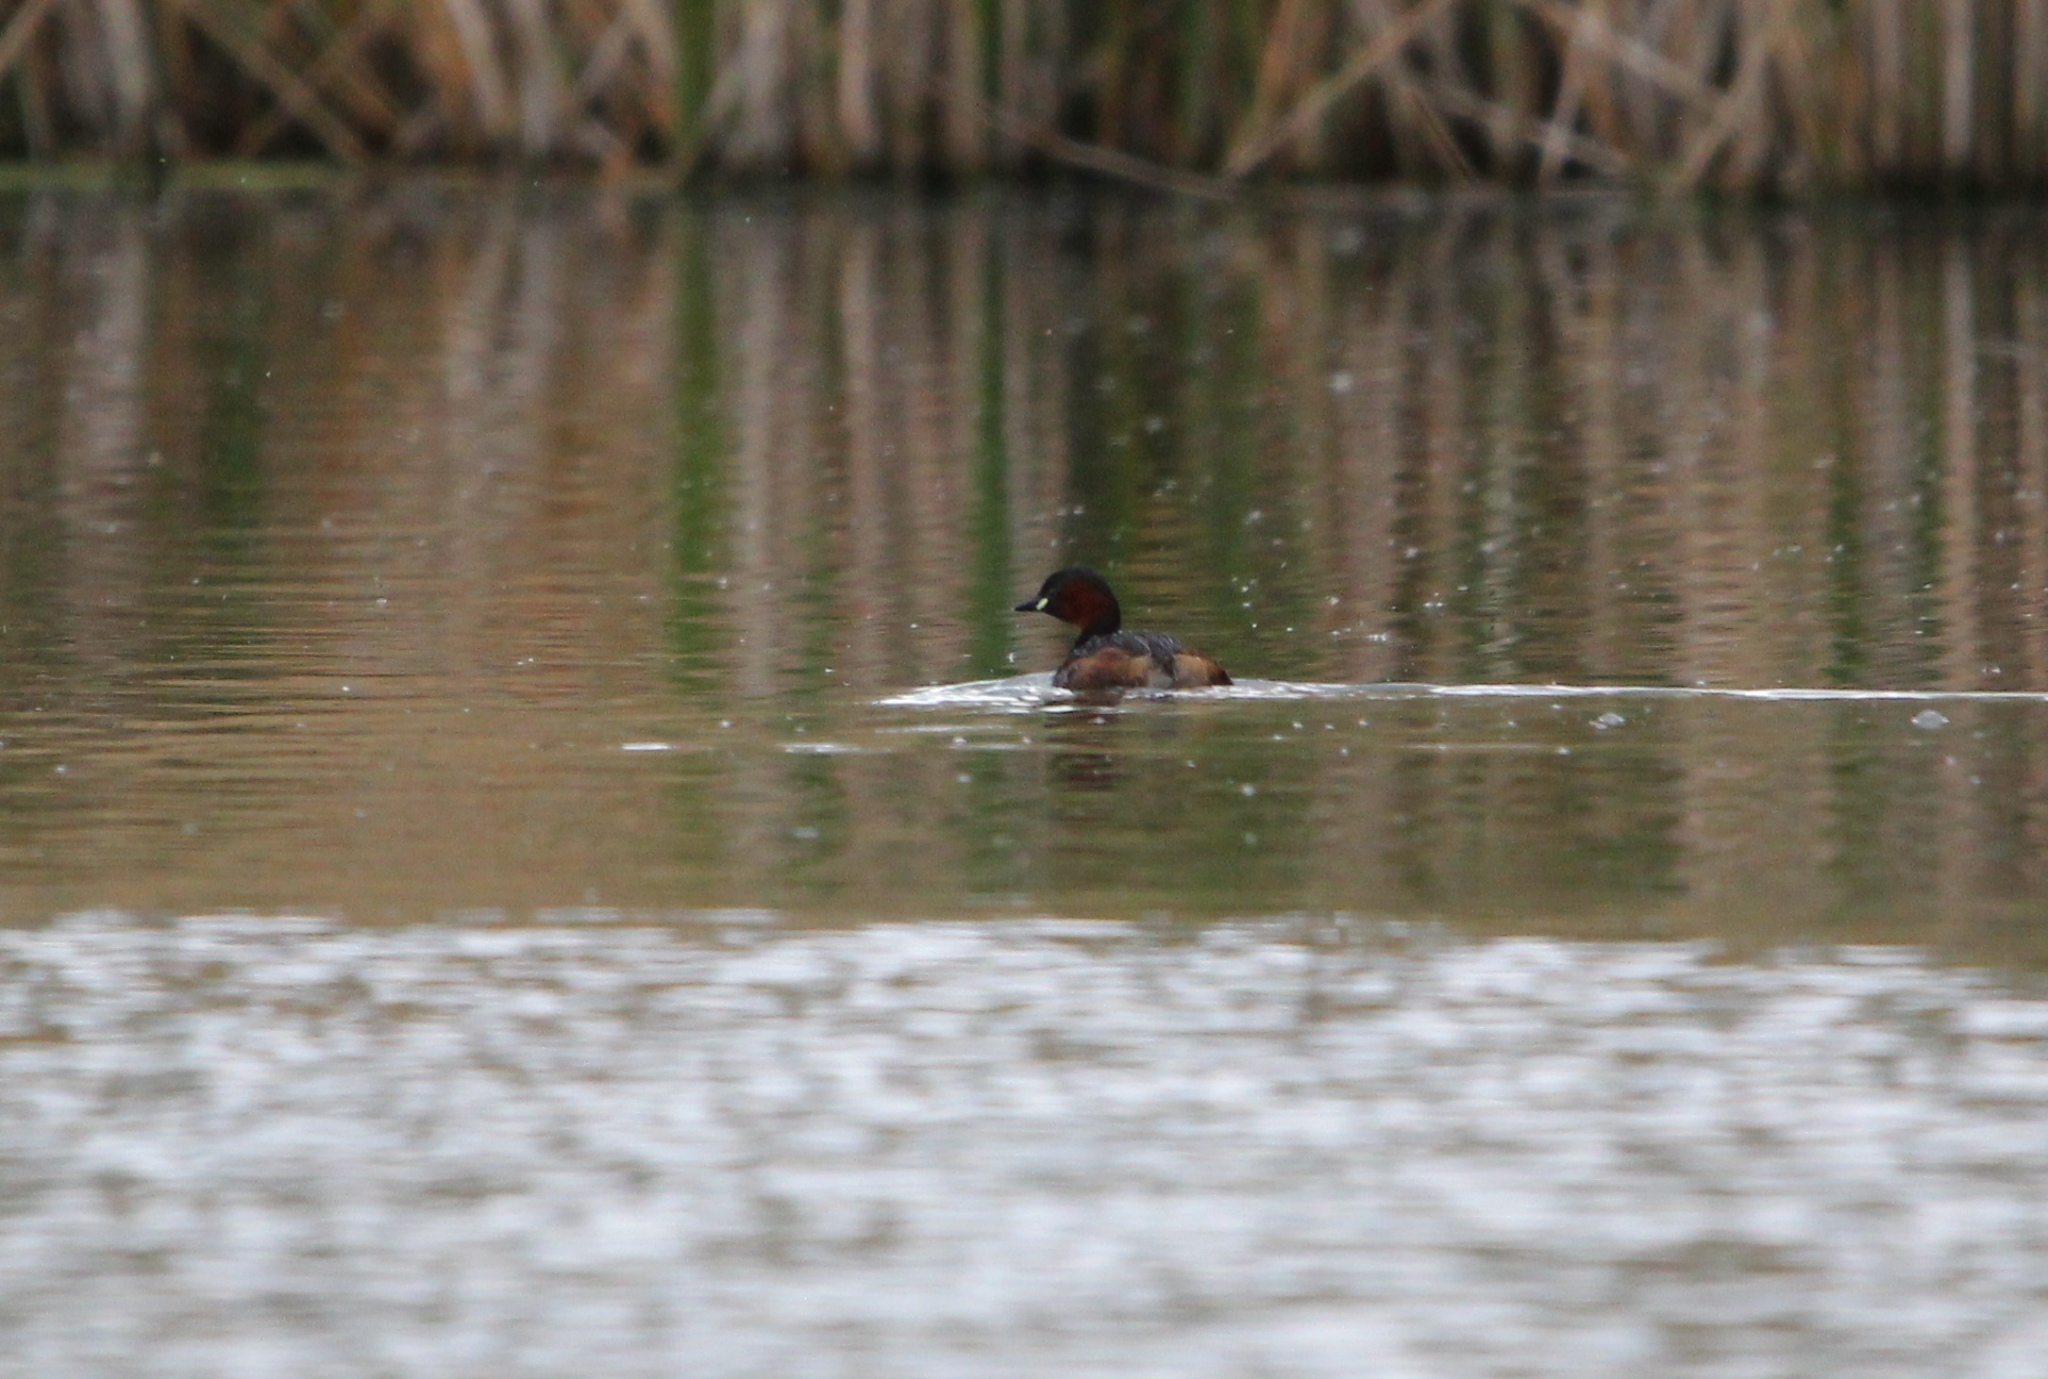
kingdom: Animalia
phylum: Chordata
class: Aves
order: Podicipediformes
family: Podicipedidae
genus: Tachybaptus
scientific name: Tachybaptus ruficollis
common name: Little grebe
